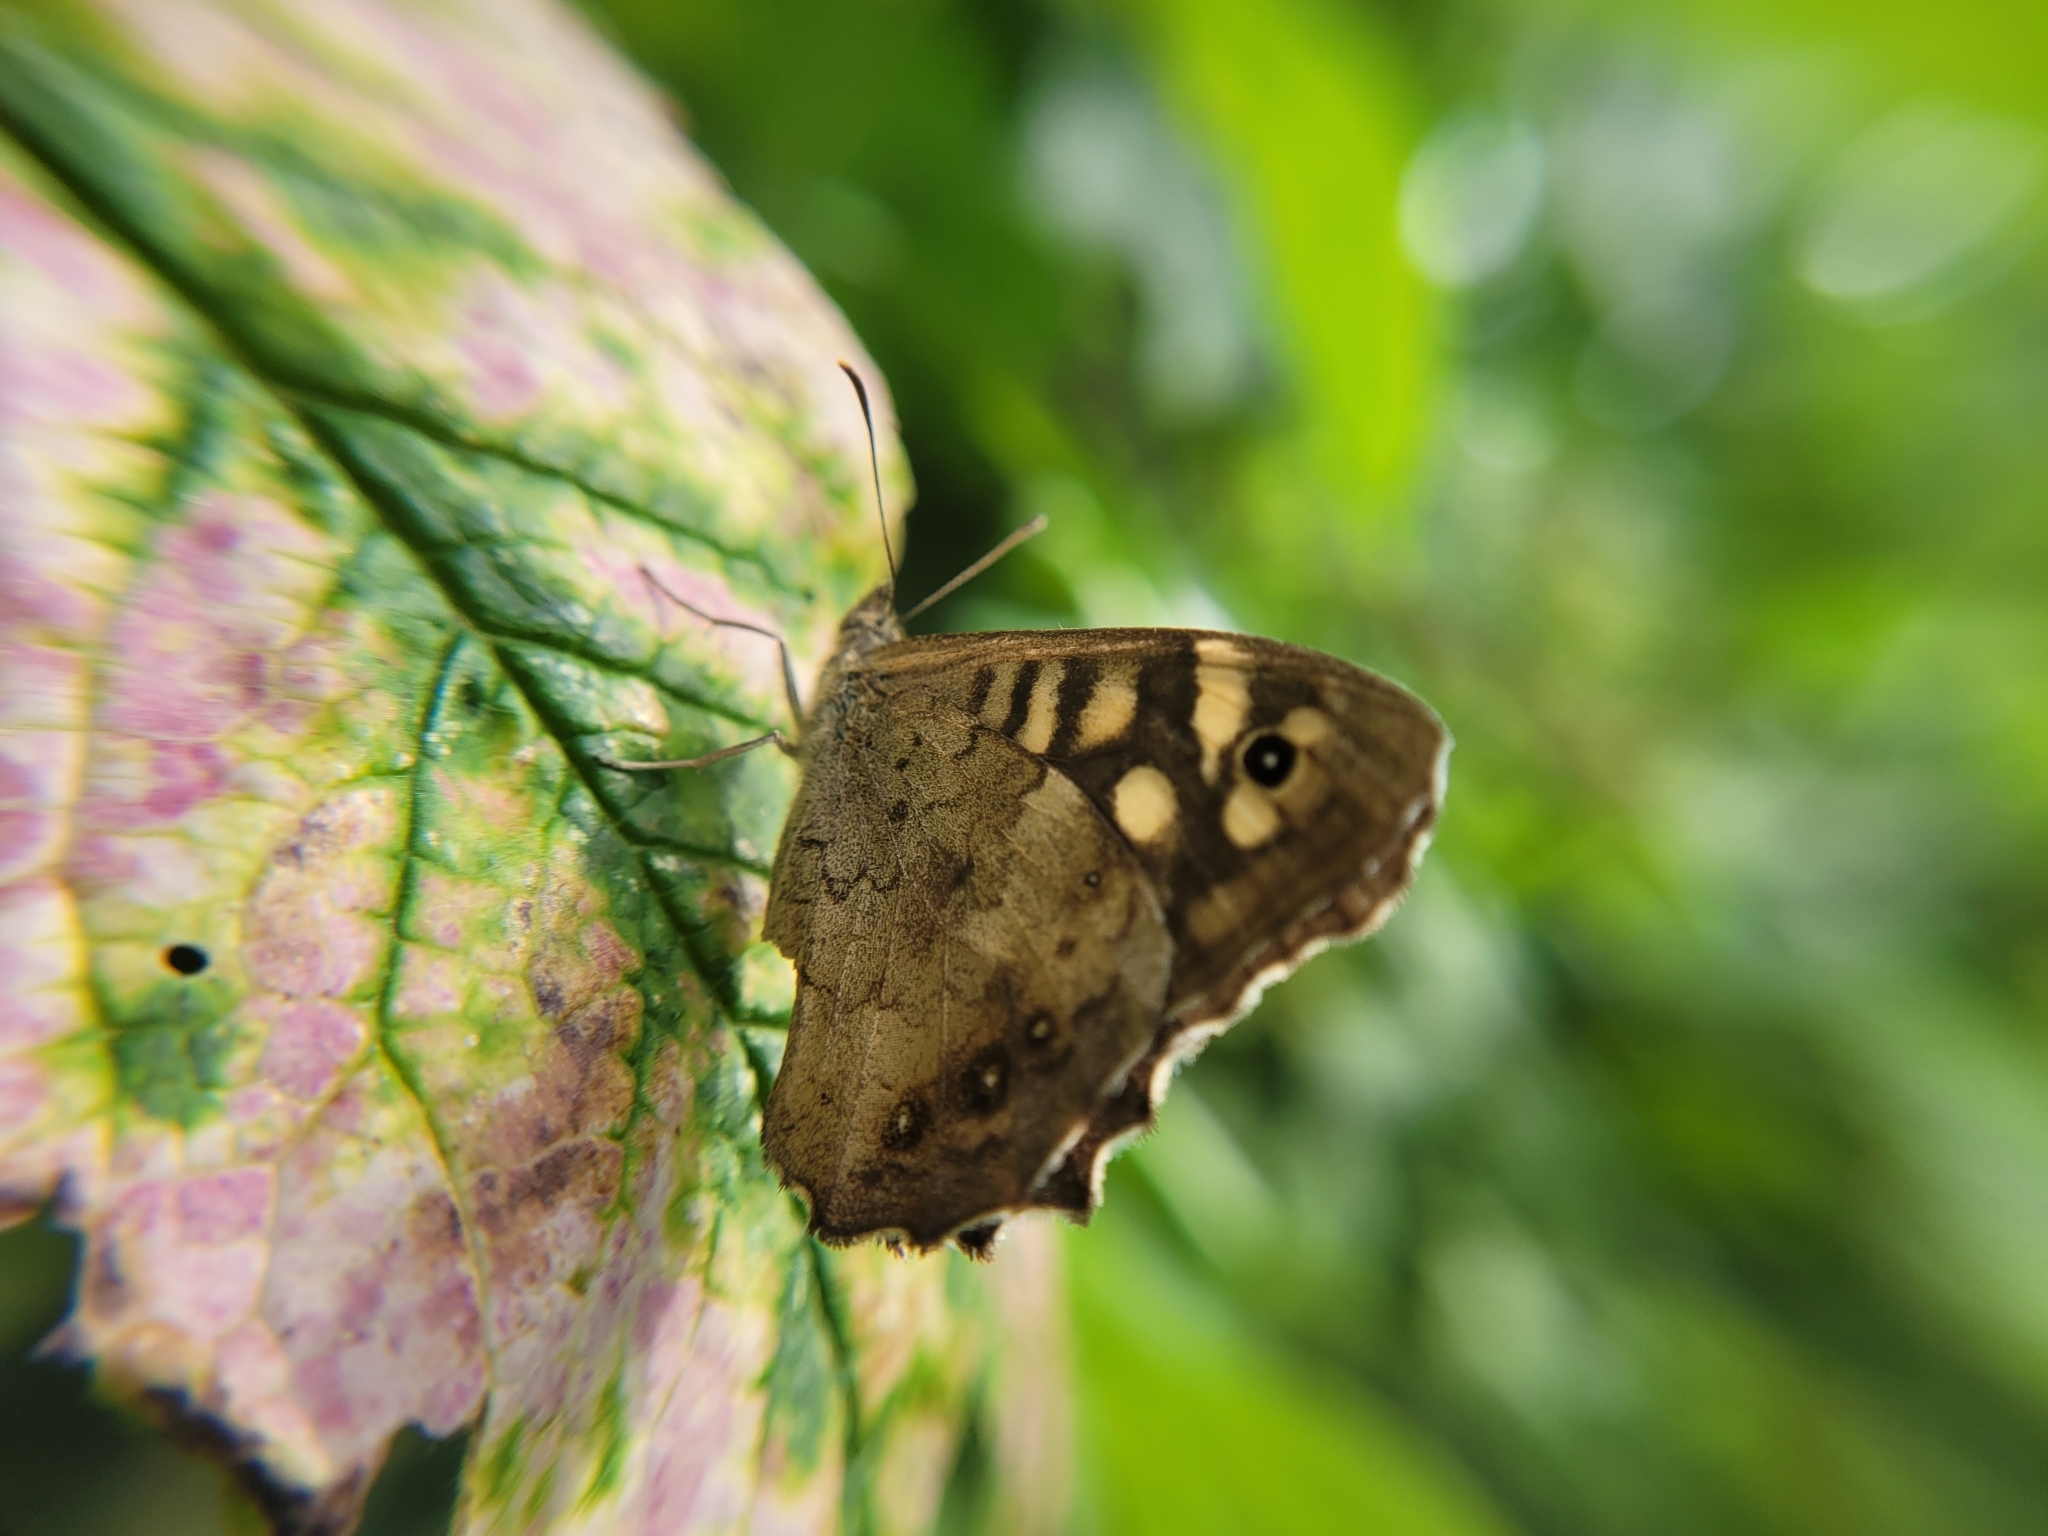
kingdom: Animalia
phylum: Arthropoda
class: Insecta
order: Lepidoptera
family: Nymphalidae
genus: Pararge
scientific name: Pararge aegeria
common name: Speckled wood
